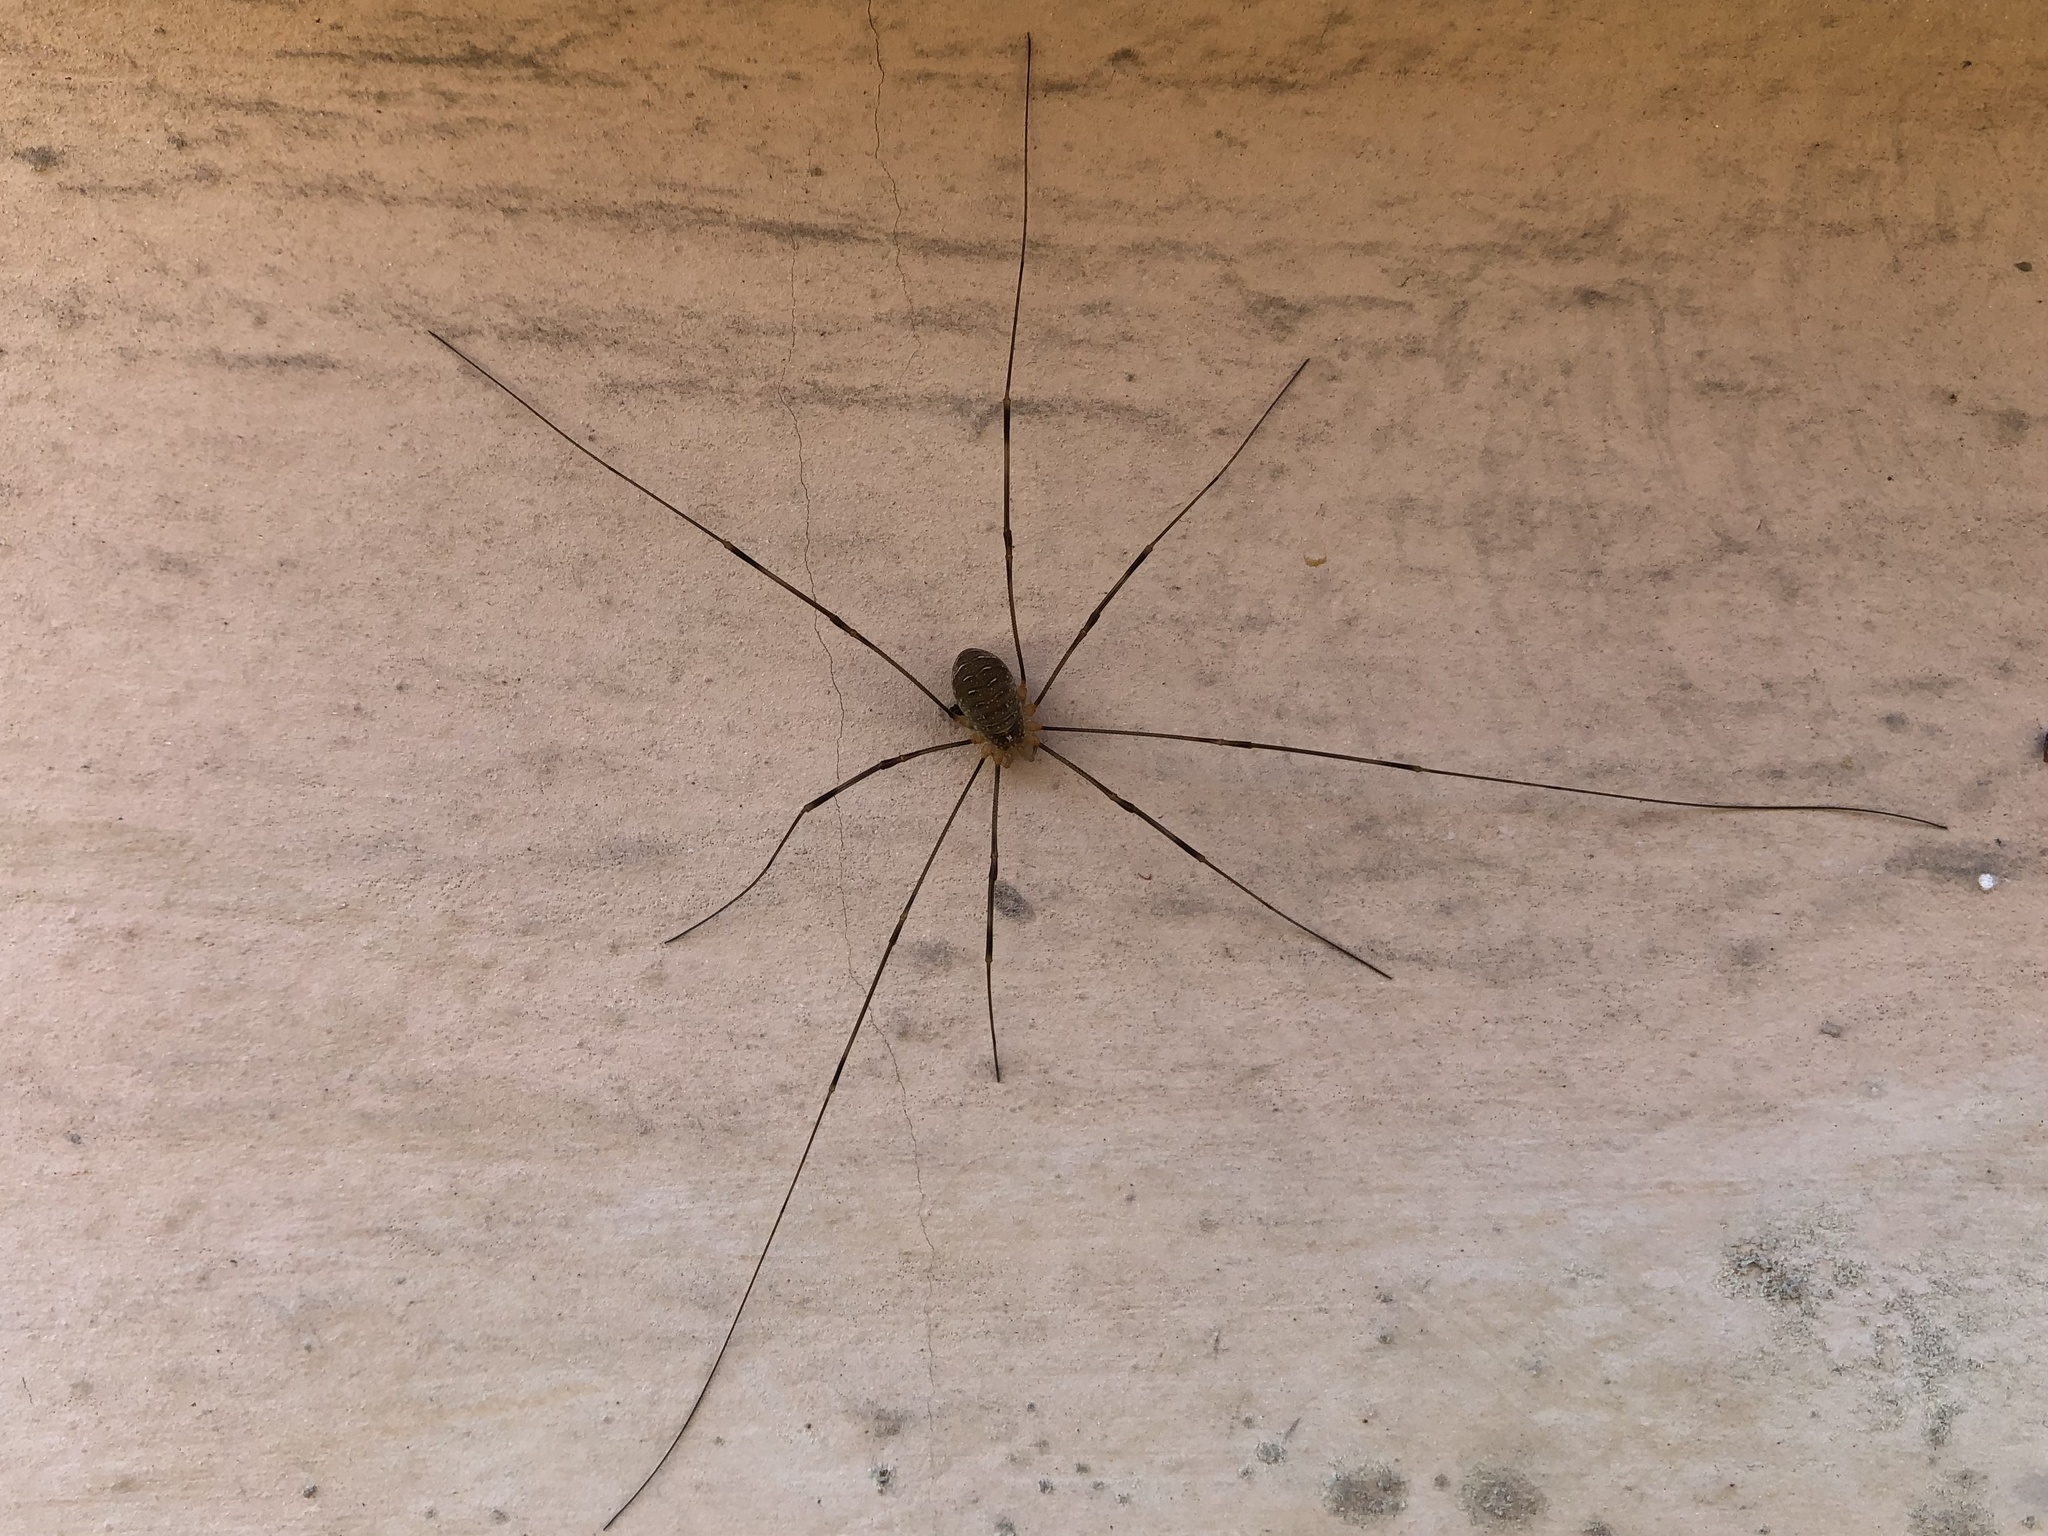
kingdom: Animalia
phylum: Arthropoda
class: Arachnida
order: Opiliones
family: Phalangiidae
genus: Opilio
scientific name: Opilio canestrinii
